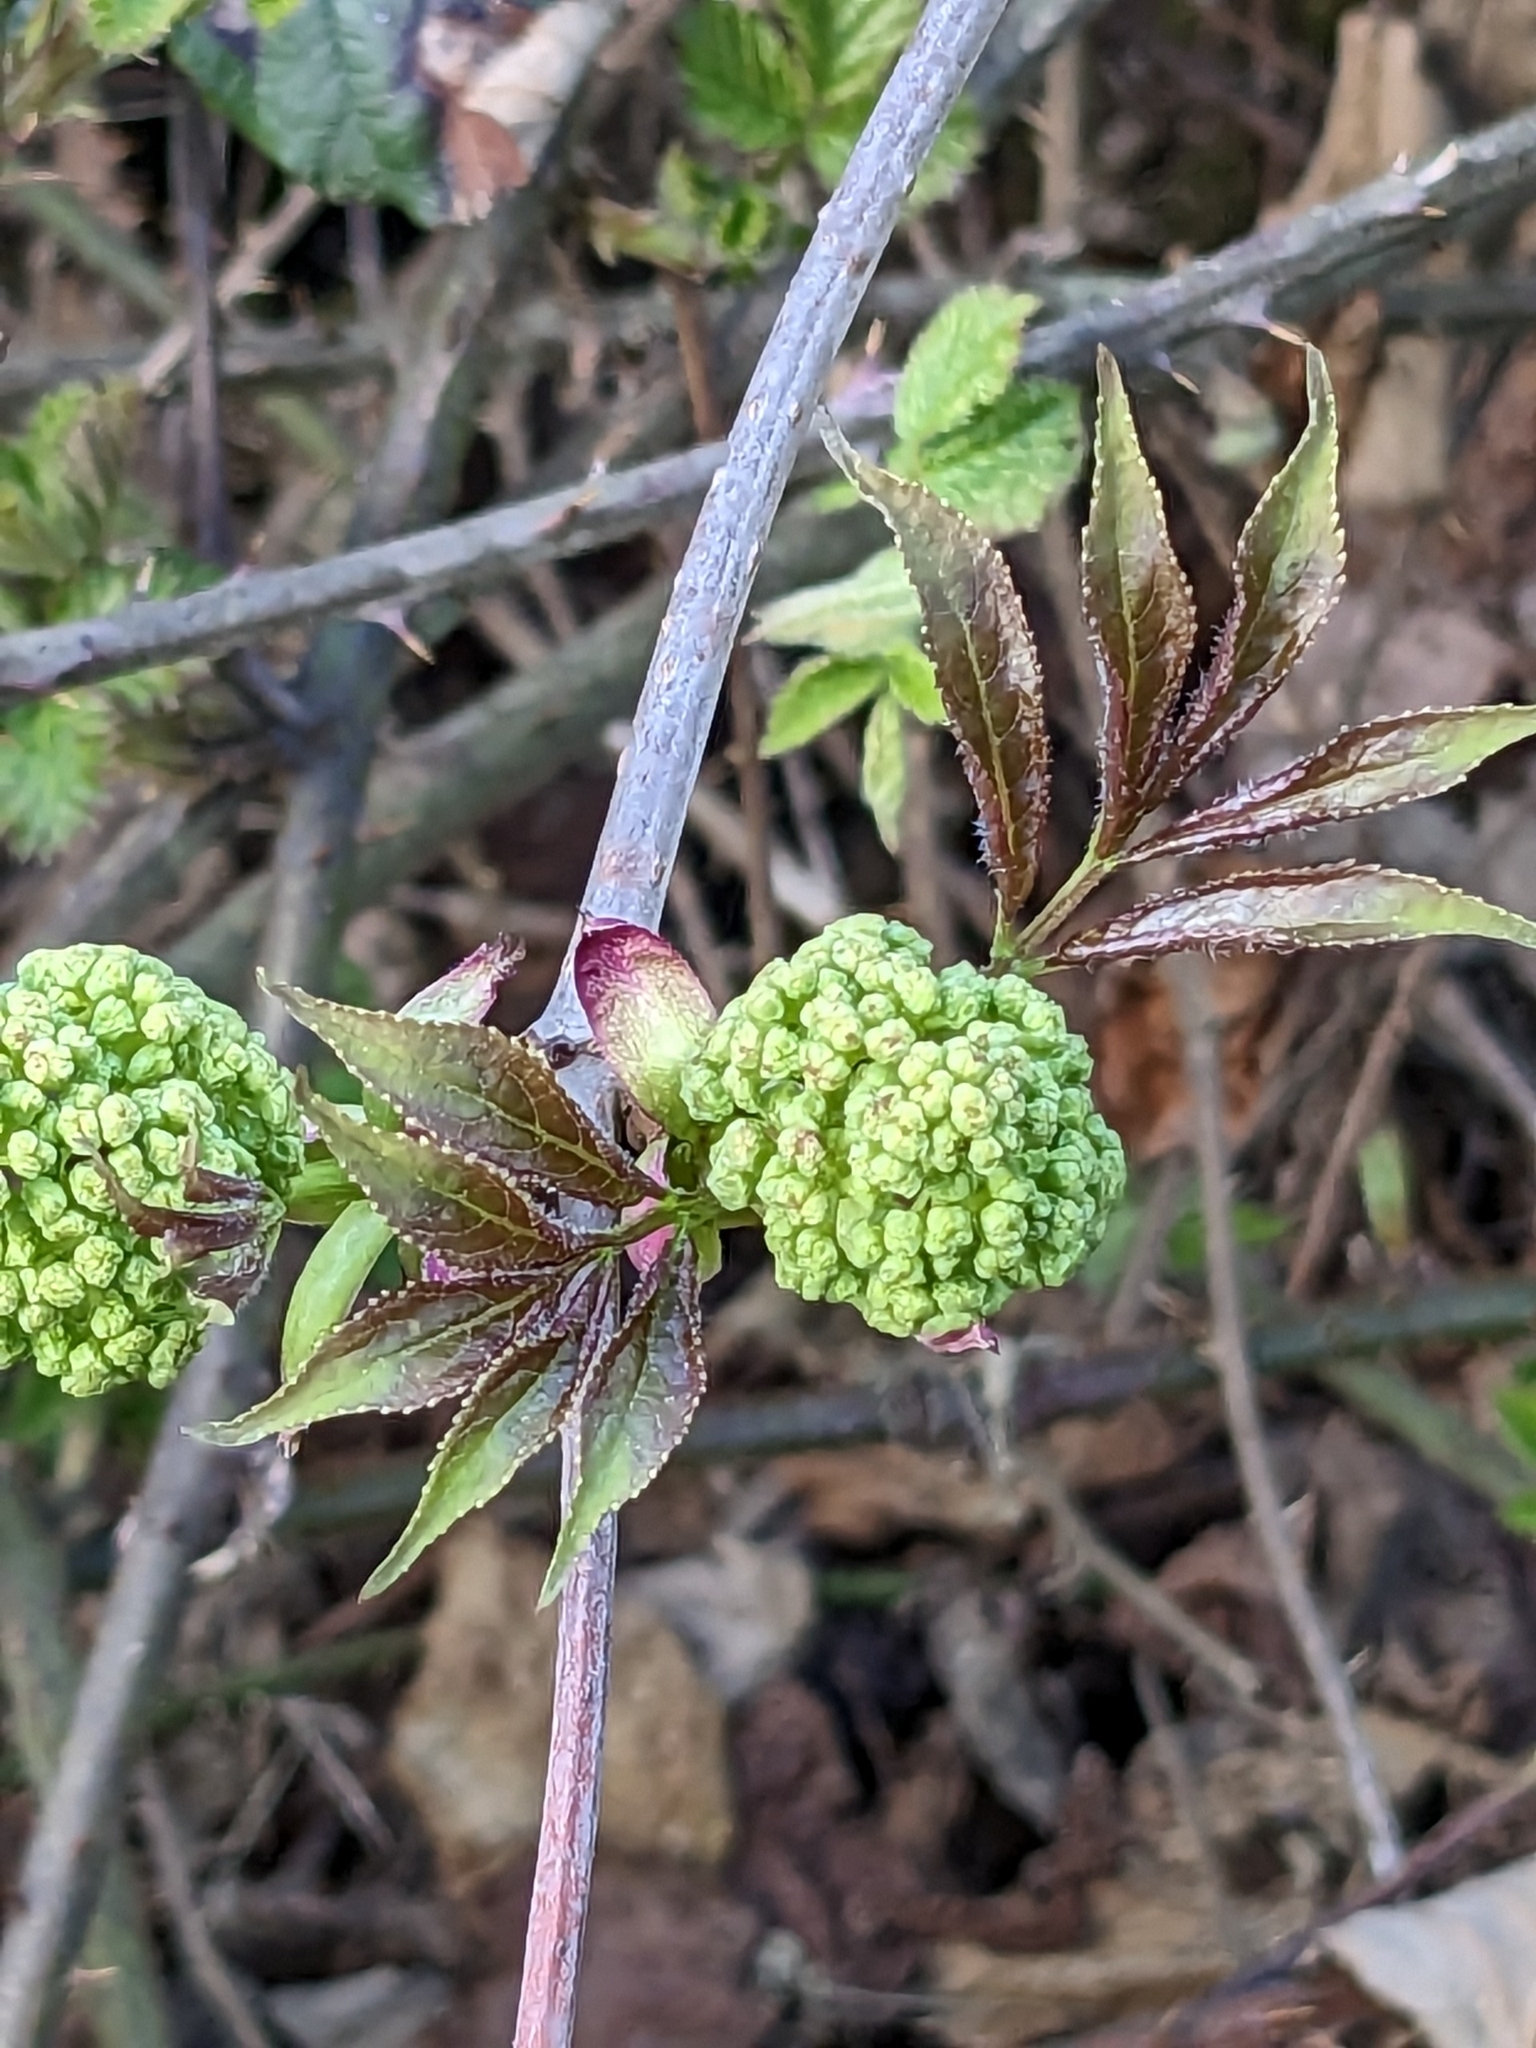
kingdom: Plantae
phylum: Tracheophyta
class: Magnoliopsida
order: Dipsacales
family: Viburnaceae
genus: Sambucus
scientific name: Sambucus racemosa
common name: Red-berried elder
